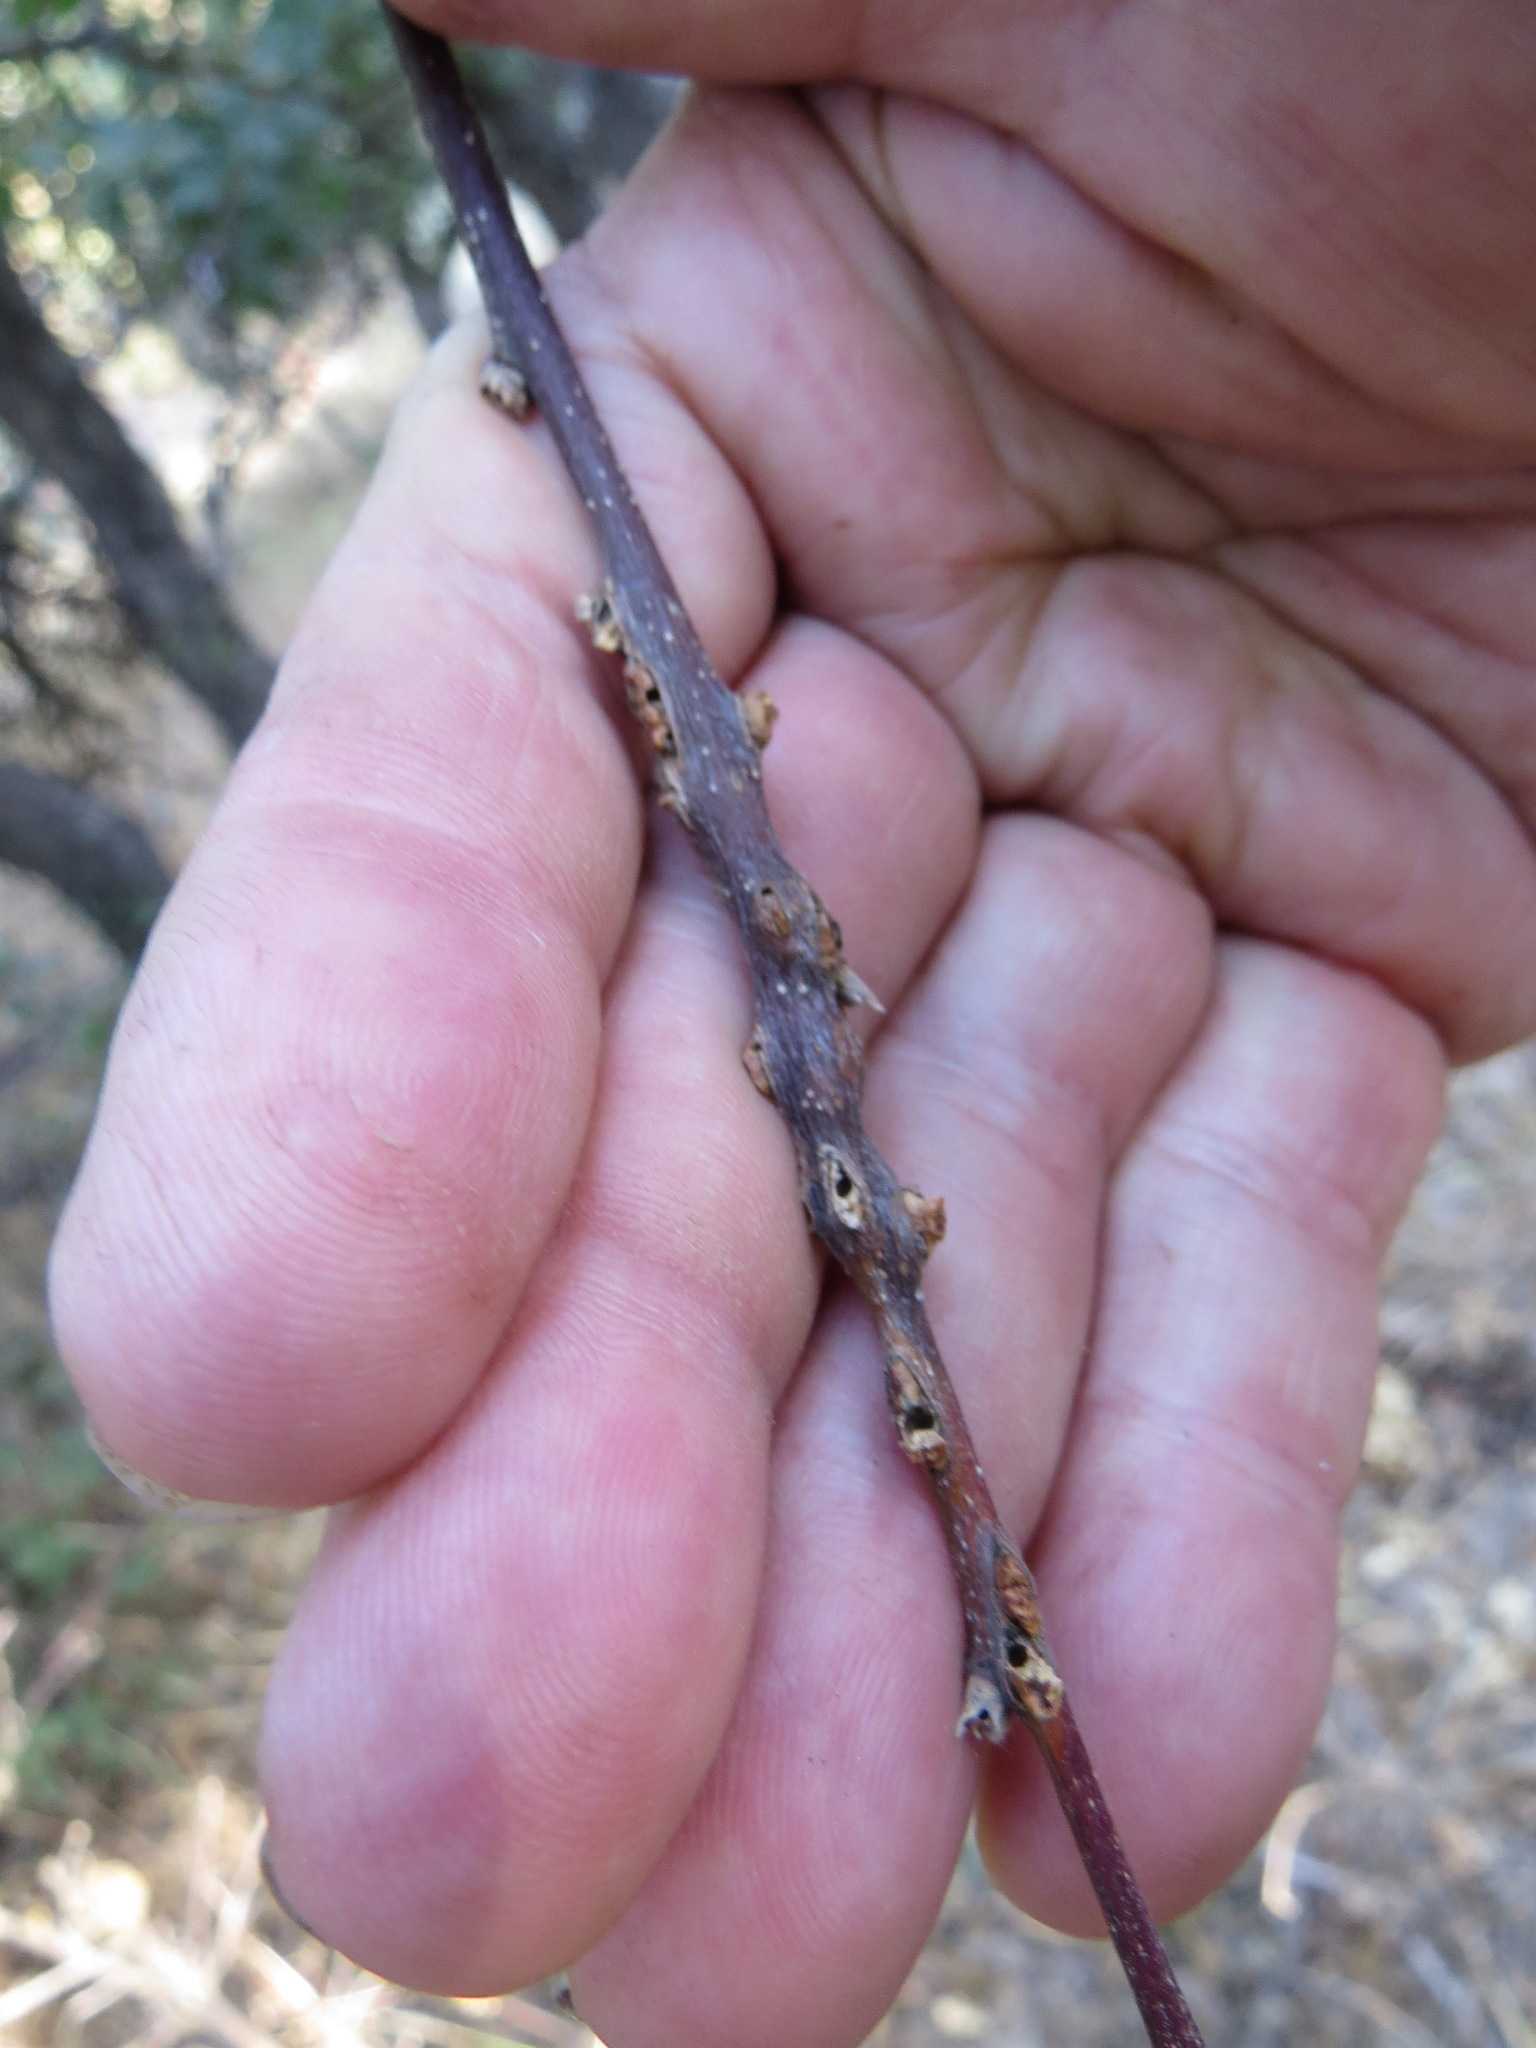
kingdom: Animalia
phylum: Arthropoda
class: Insecta
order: Hymenoptera
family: Cynipidae
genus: Disholcaspis
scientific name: Disholcaspis
